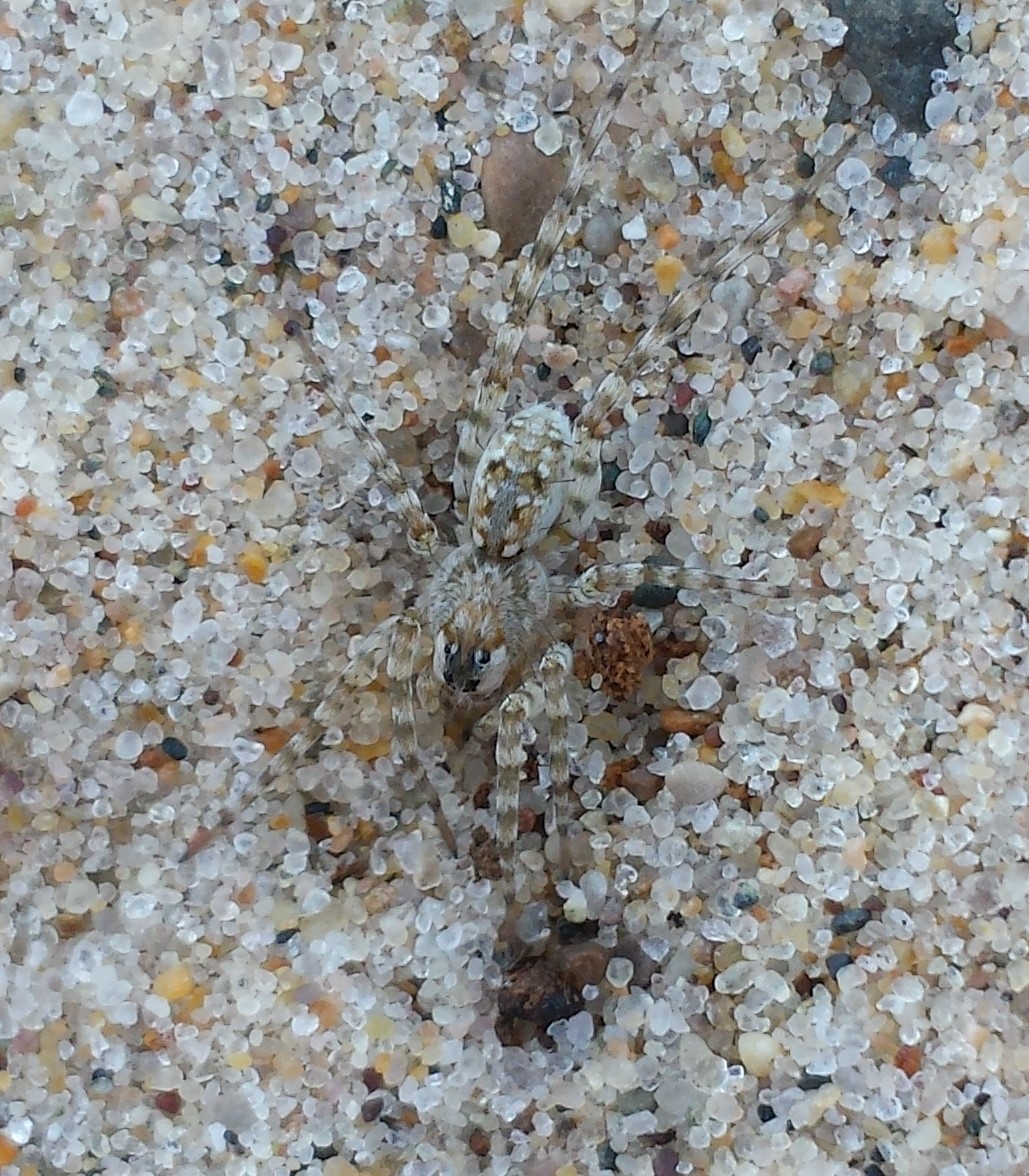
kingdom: Animalia
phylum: Arthropoda
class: Arachnida
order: Araneae
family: Lycosidae
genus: Arctosa
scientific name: Arctosa littoralis
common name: Wolf spiders
